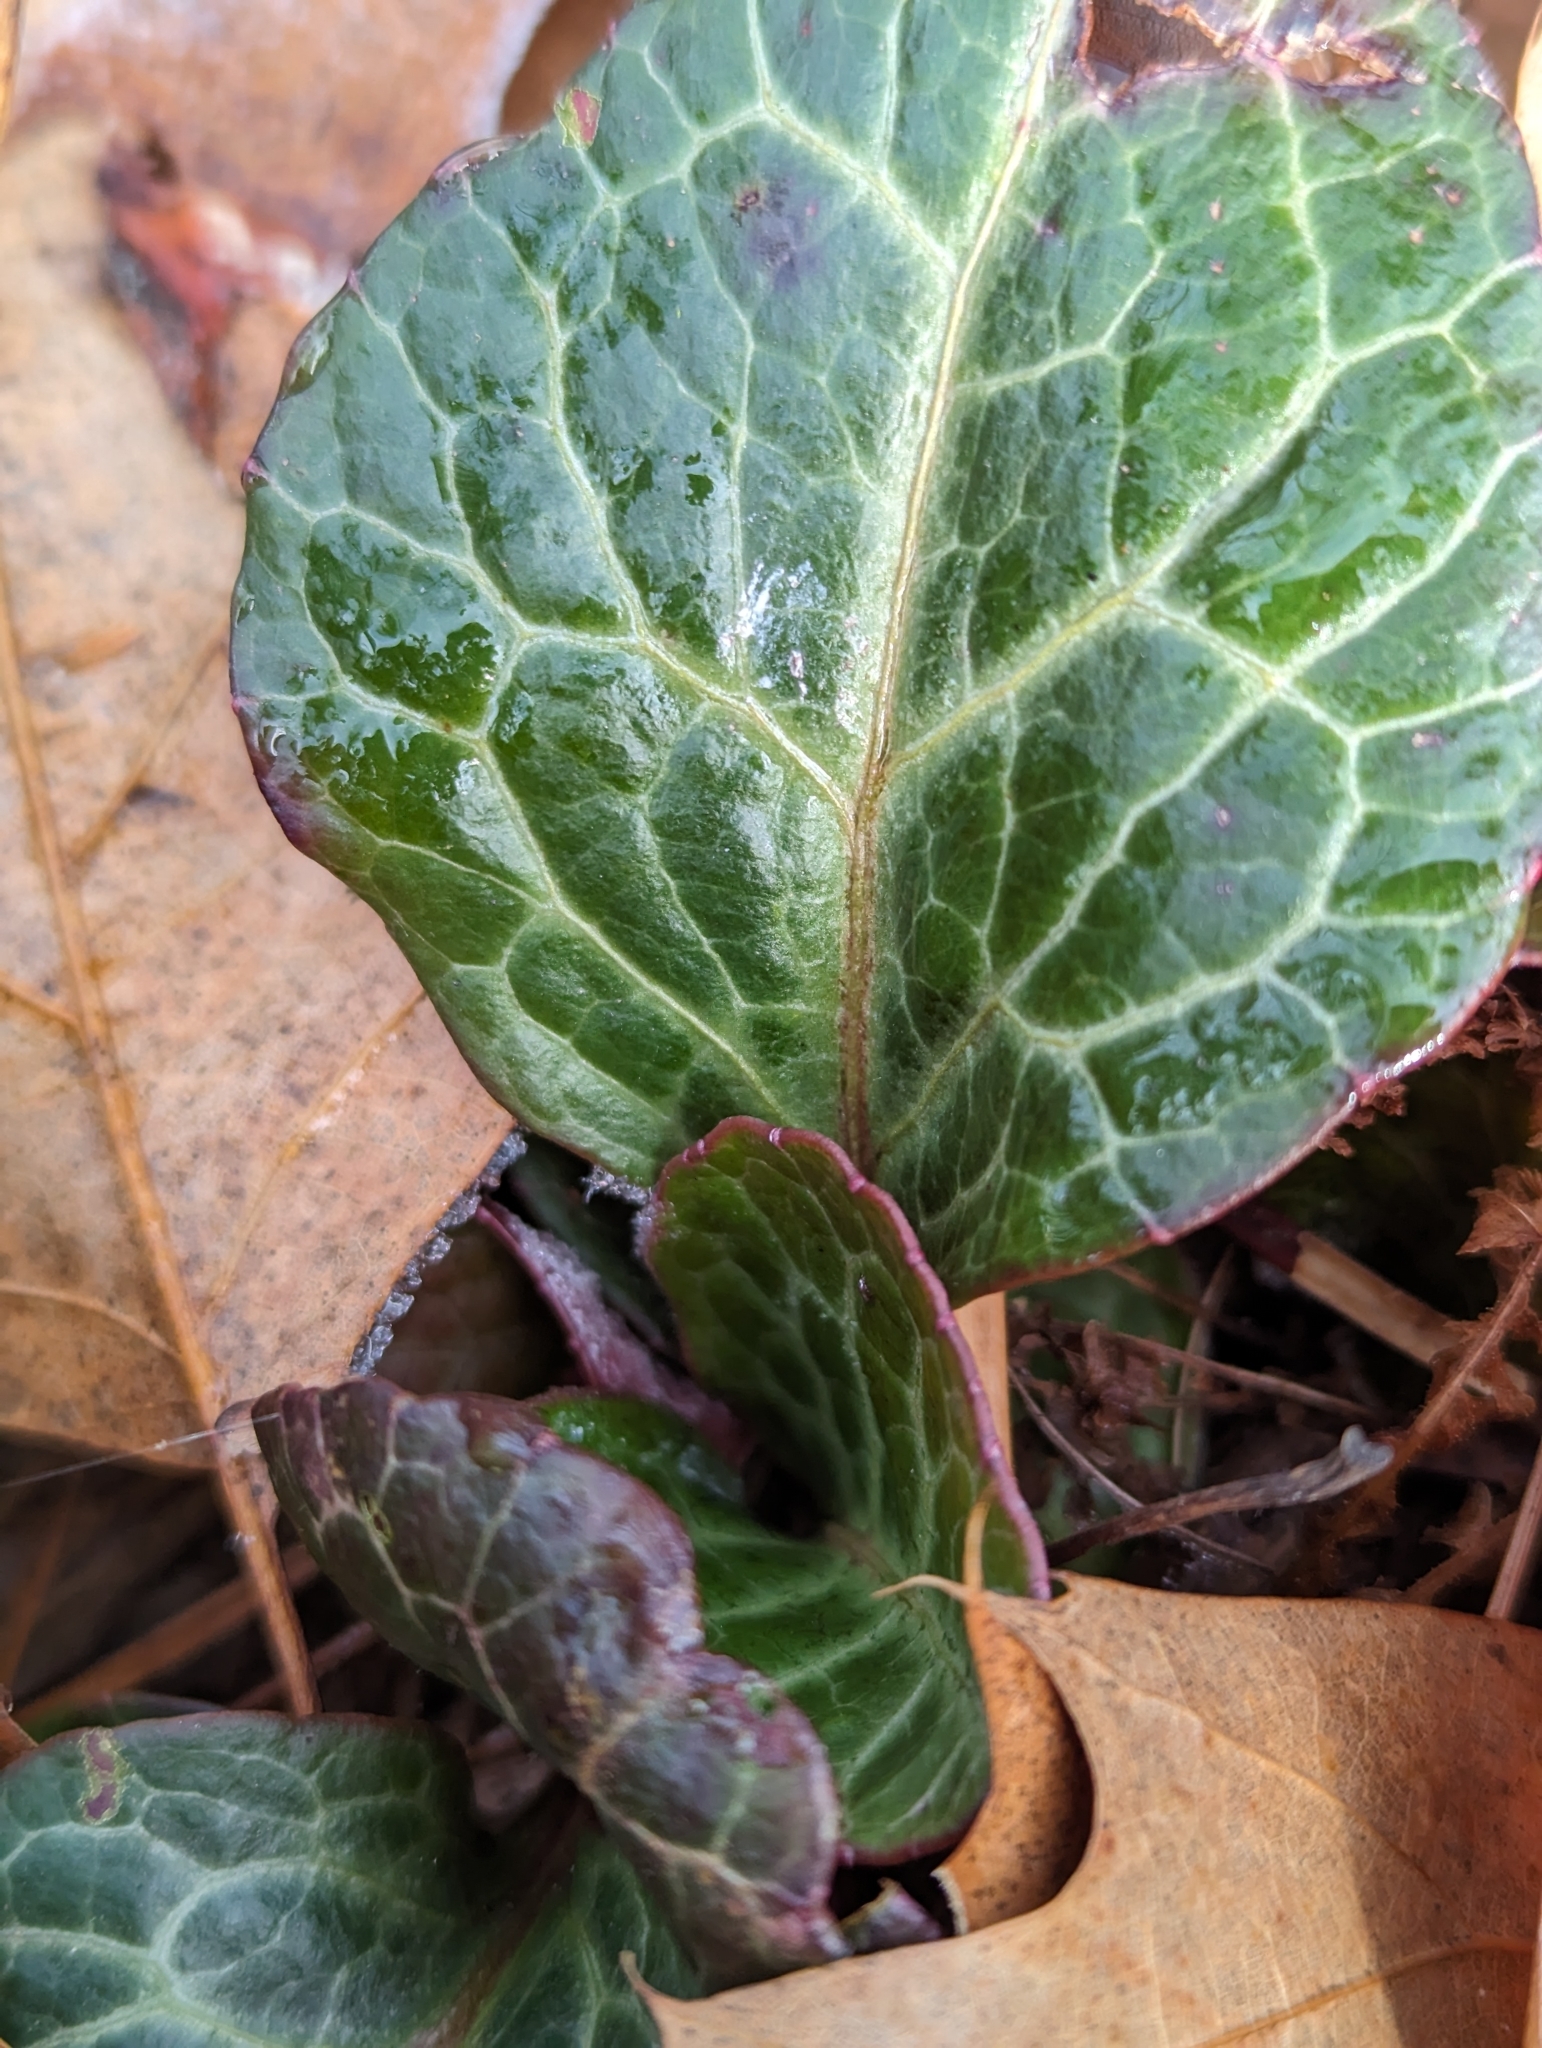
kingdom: Plantae
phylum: Tracheophyta
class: Magnoliopsida
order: Ericales
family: Ericaceae
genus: Pyrola
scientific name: Pyrola americana
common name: American wintergreen
